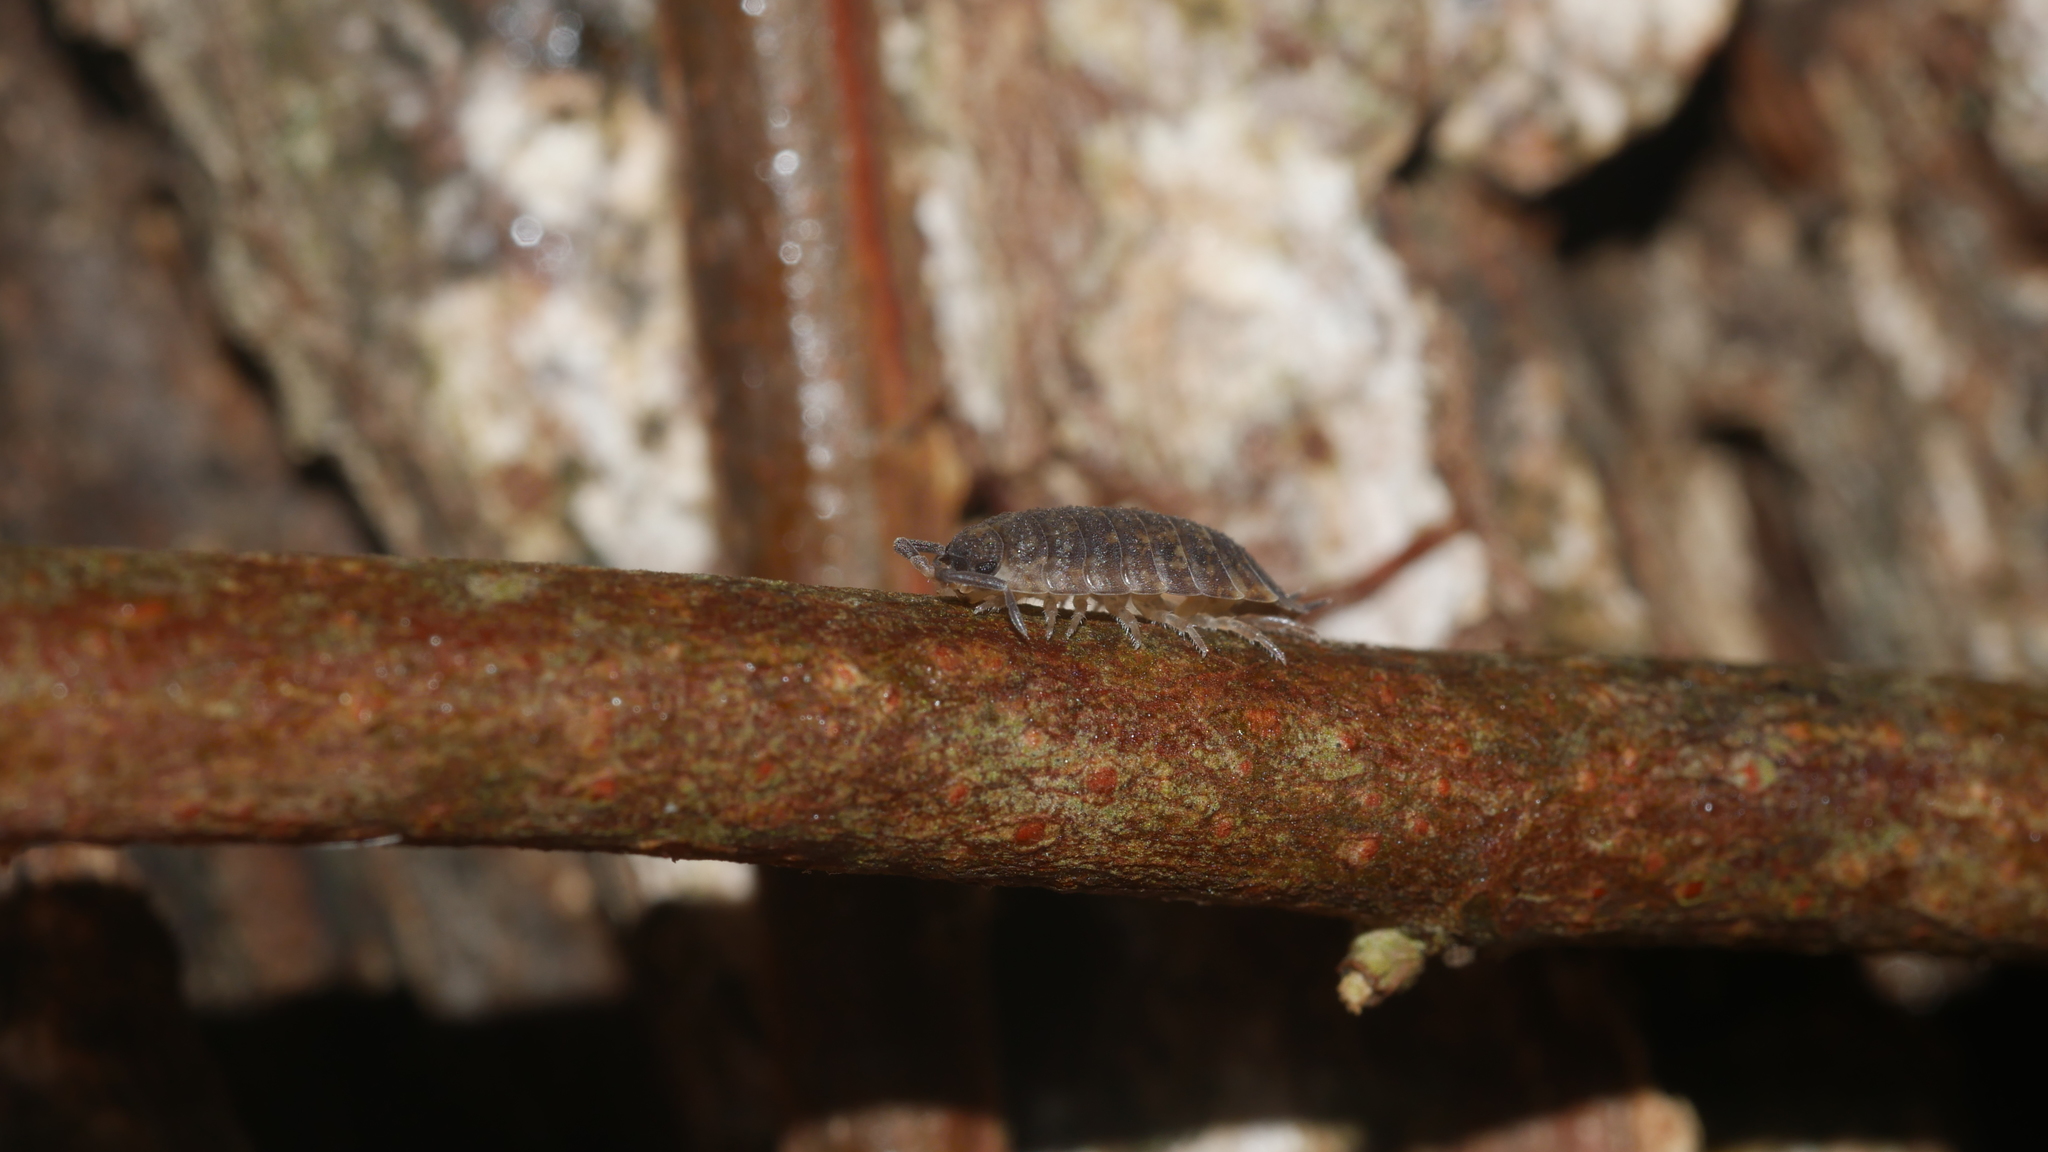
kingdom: Animalia
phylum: Arthropoda
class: Malacostraca
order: Isopoda
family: Porcellionidae
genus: Porcellio
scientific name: Porcellio scaber
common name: Common rough woodlouse
